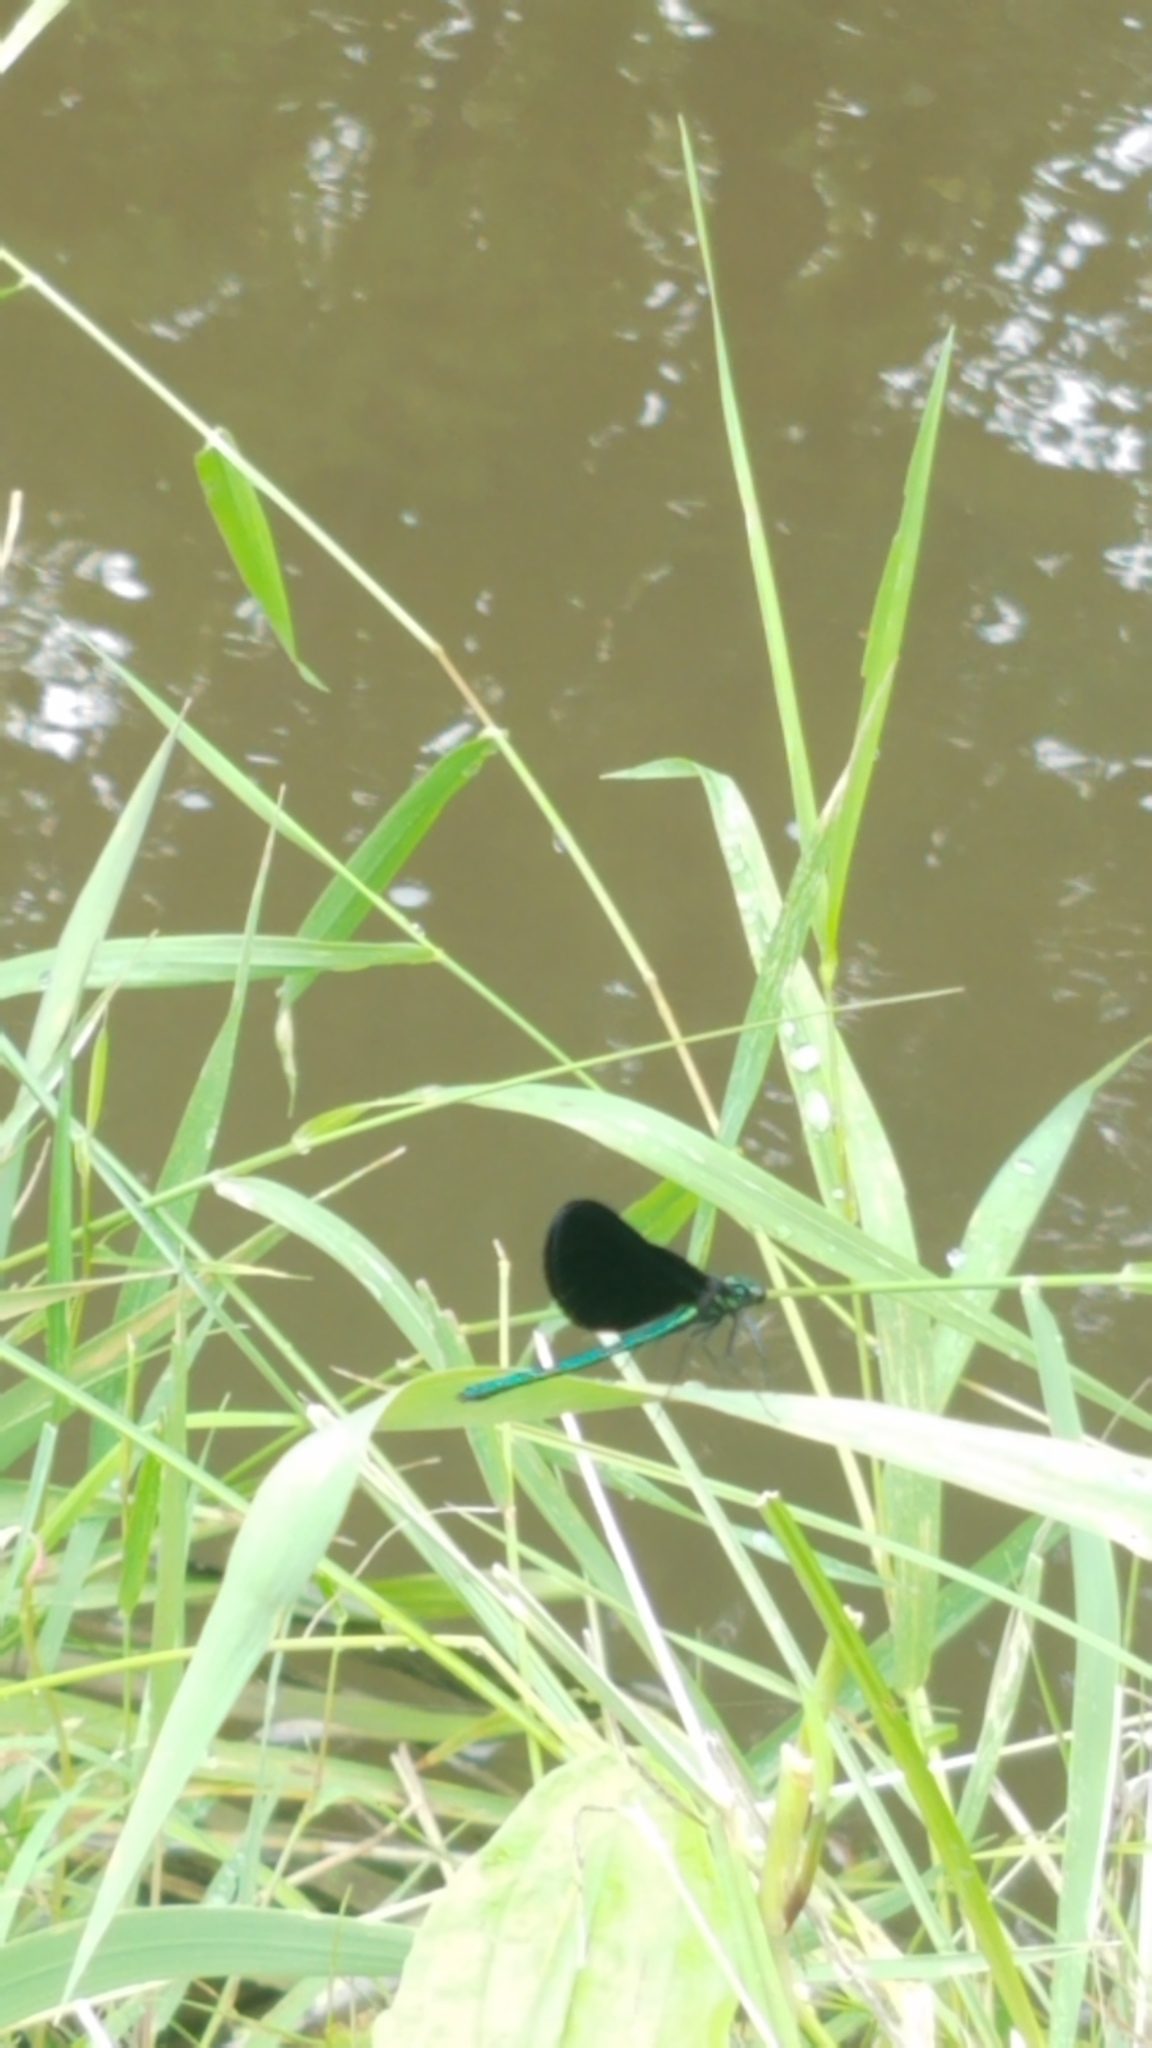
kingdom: Animalia
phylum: Arthropoda
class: Insecta
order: Odonata
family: Calopterygidae
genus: Calopteryx
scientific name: Calopteryx maculata
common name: Ebony jewelwing
